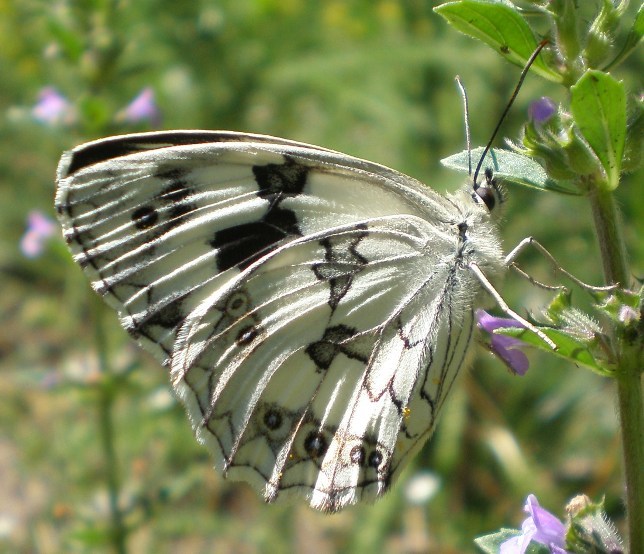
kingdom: Animalia
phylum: Arthropoda
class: Insecta
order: Lepidoptera
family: Nymphalidae
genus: Melanargia
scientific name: Melanargia lachesis
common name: Iberian marbled white
